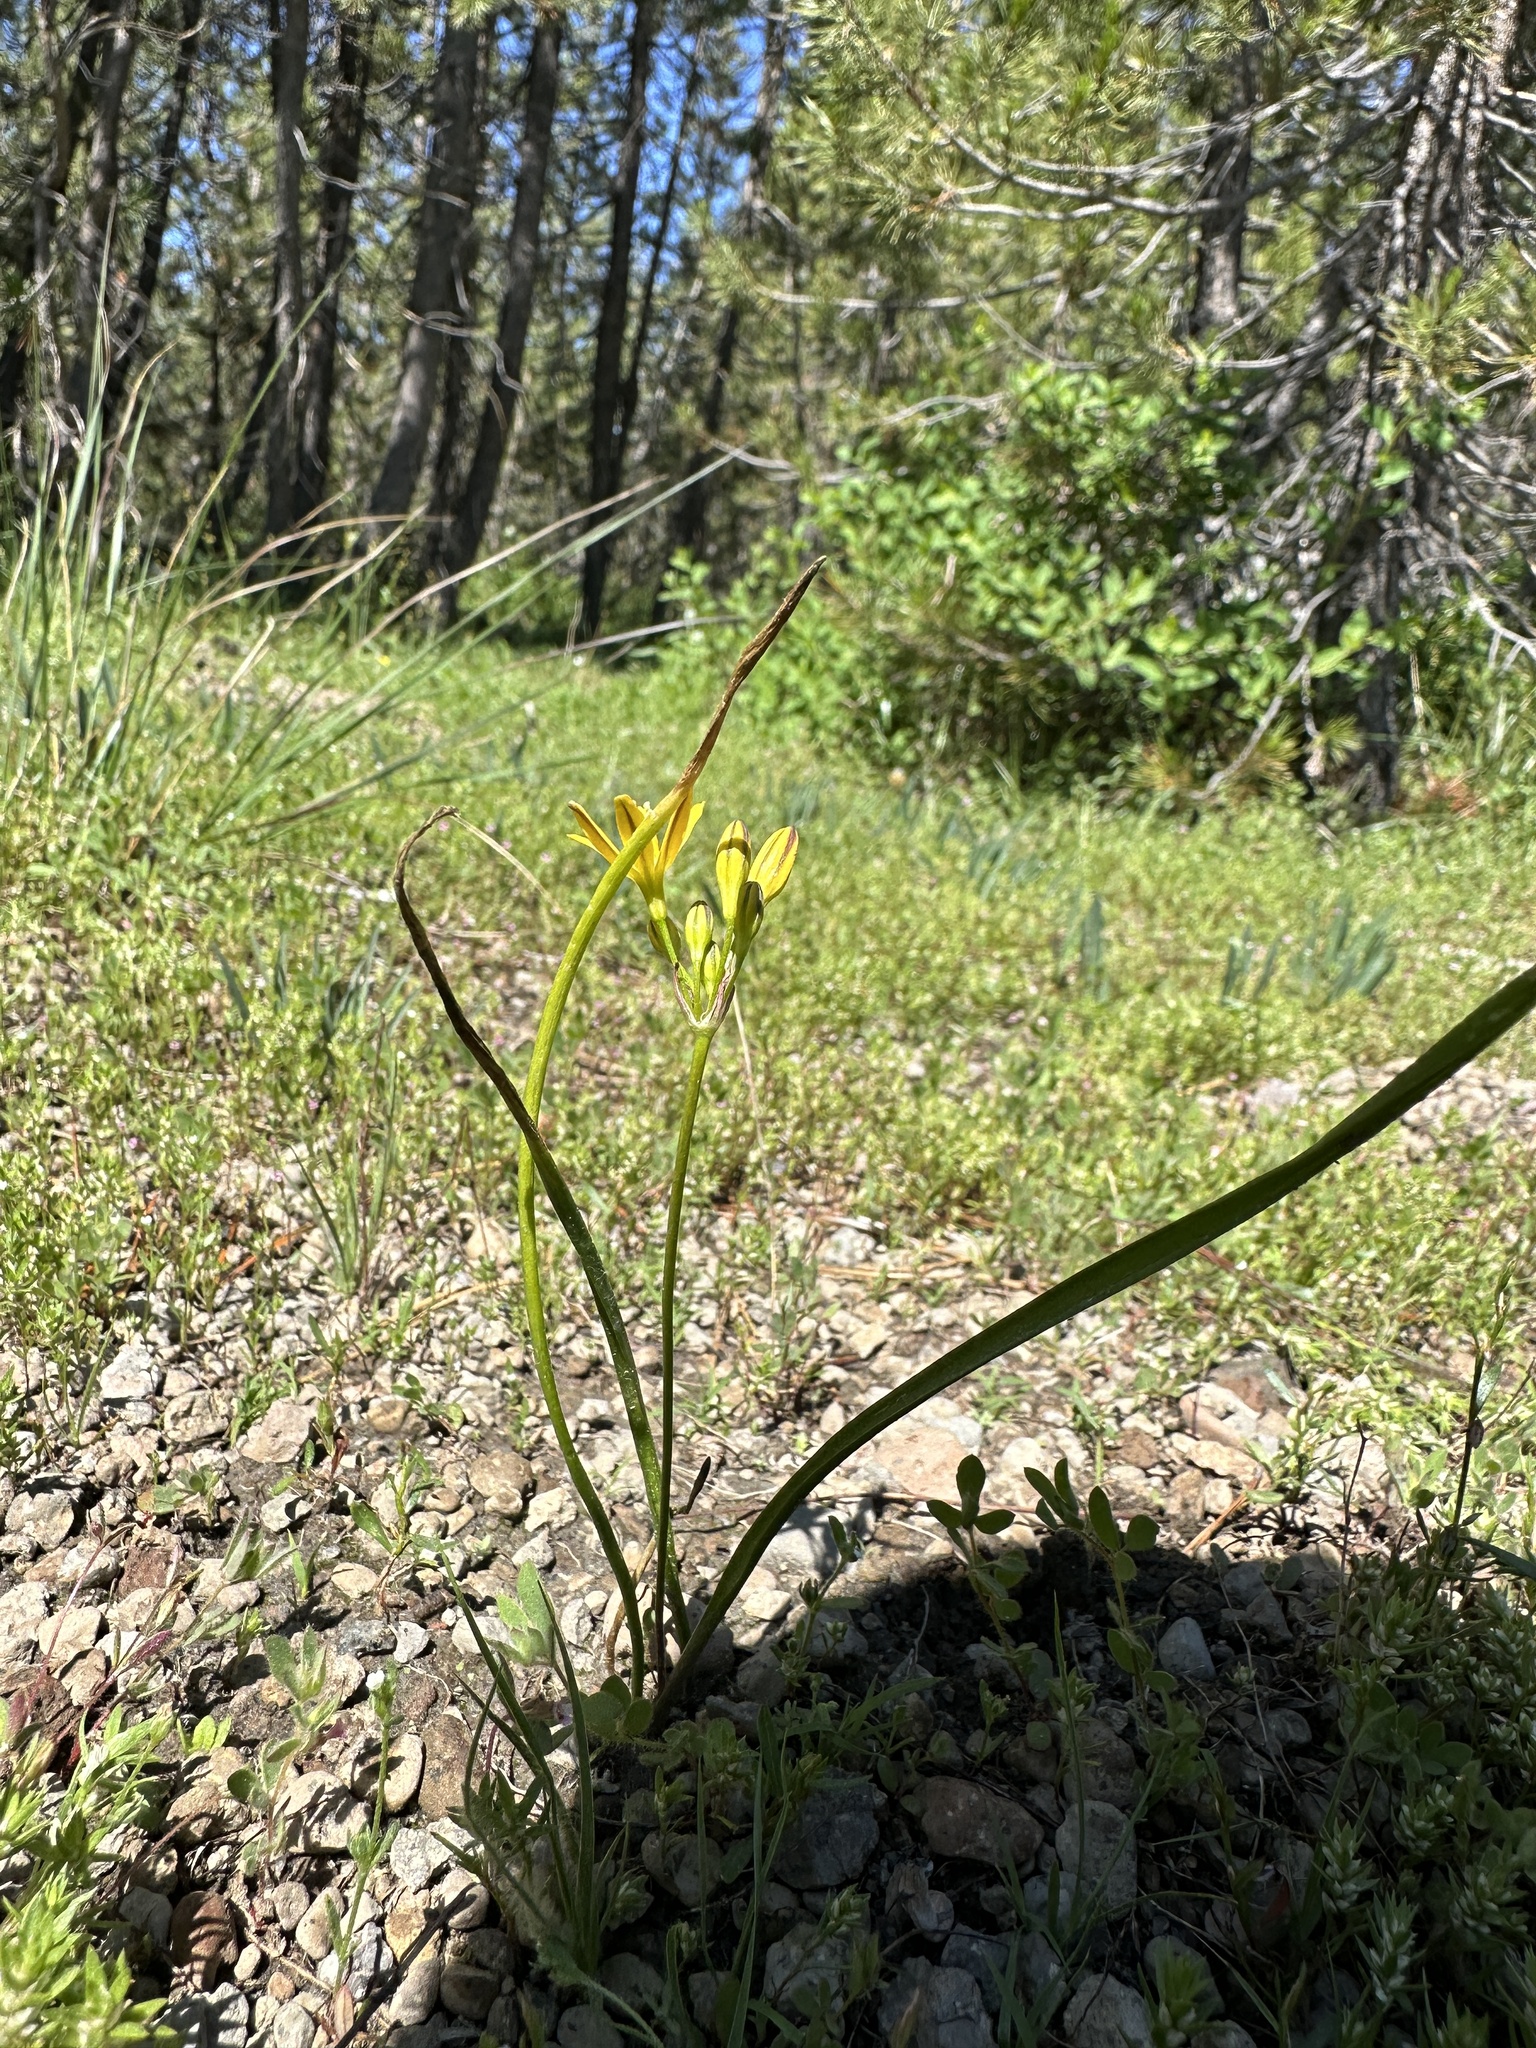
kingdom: Plantae
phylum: Tracheophyta
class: Liliopsida
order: Asparagales
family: Asparagaceae
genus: Triteleia
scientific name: Triteleia montana
